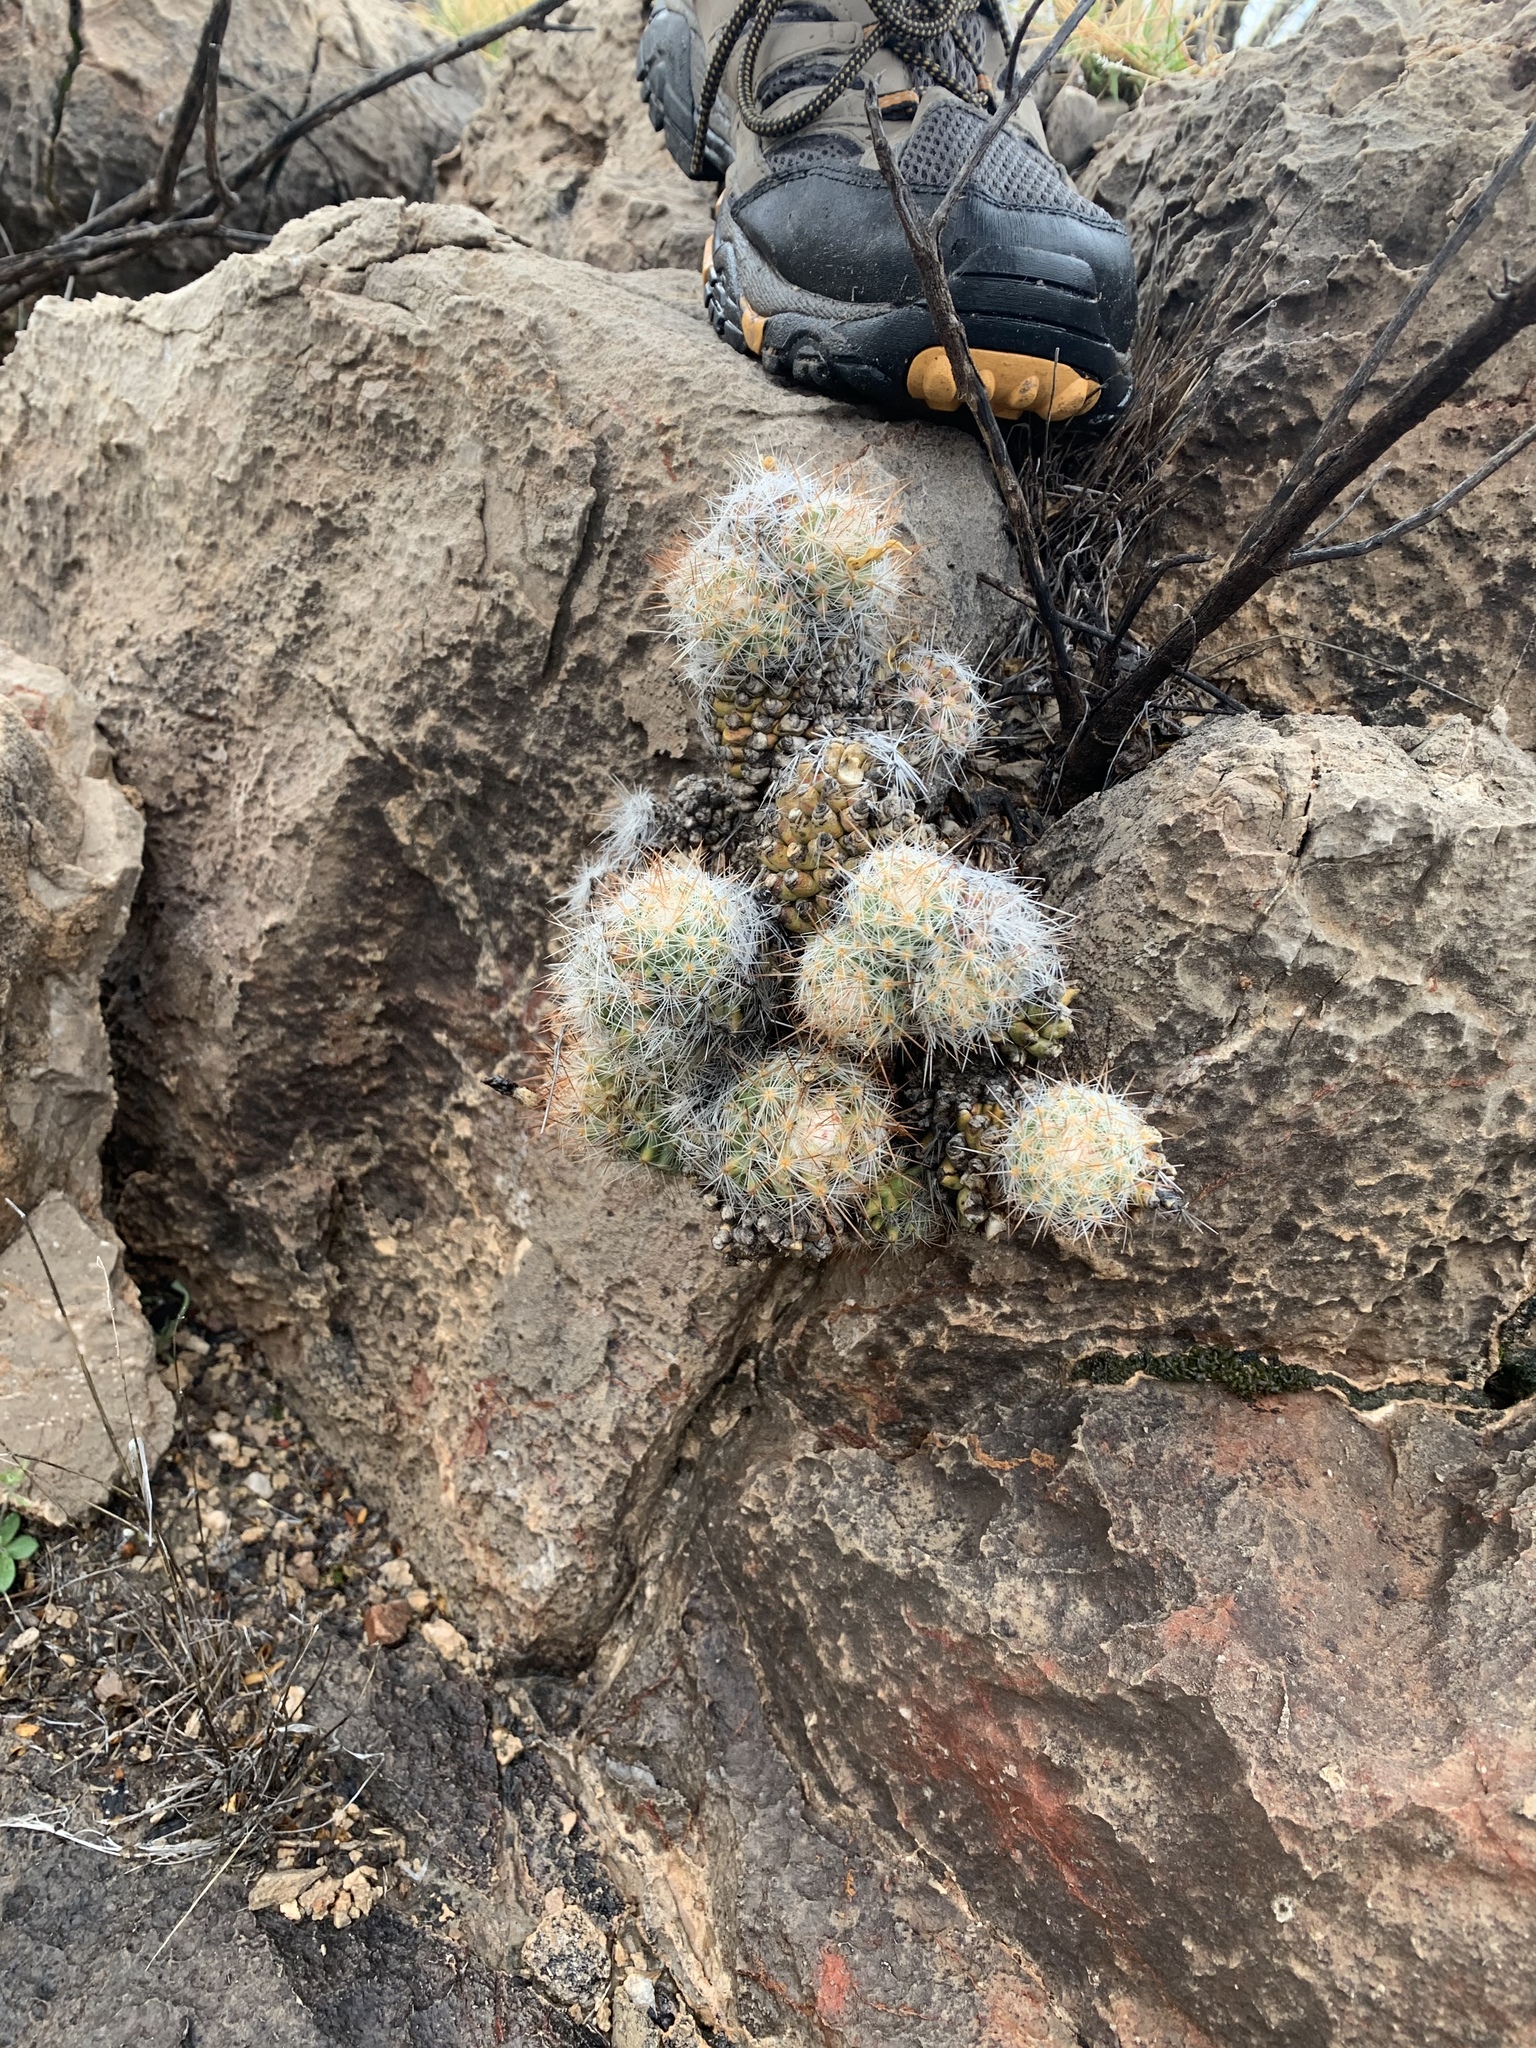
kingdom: Plantae
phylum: Tracheophyta
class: Magnoliopsida
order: Caryophyllales
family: Cactaceae
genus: Pelecyphora
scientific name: Pelecyphora tuberculosa
